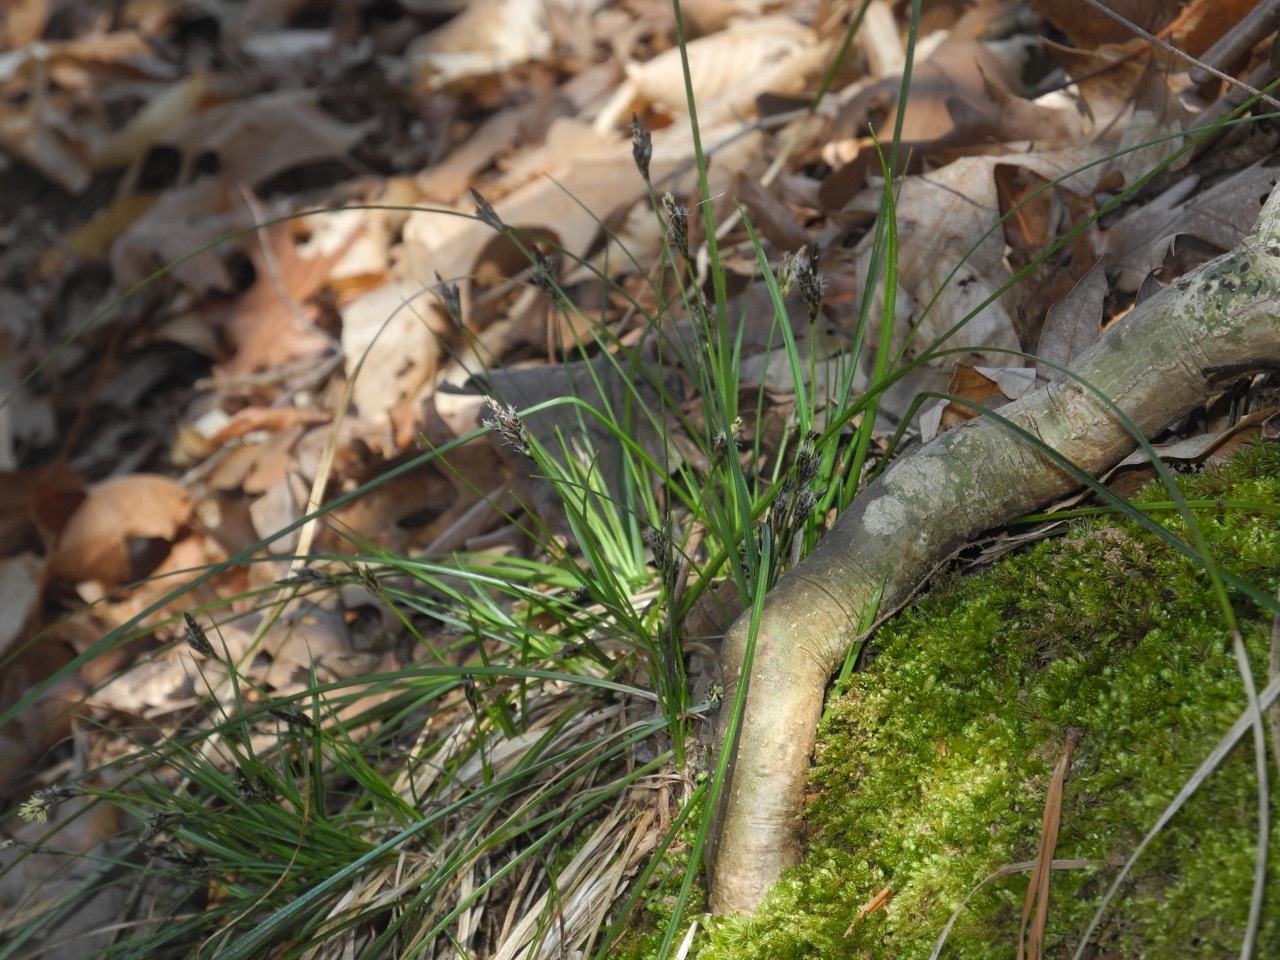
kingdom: Plantae
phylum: Tracheophyta
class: Liliopsida
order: Poales
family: Cyperaceae
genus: Carex
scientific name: Carex communis
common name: Colonial oak sedge
